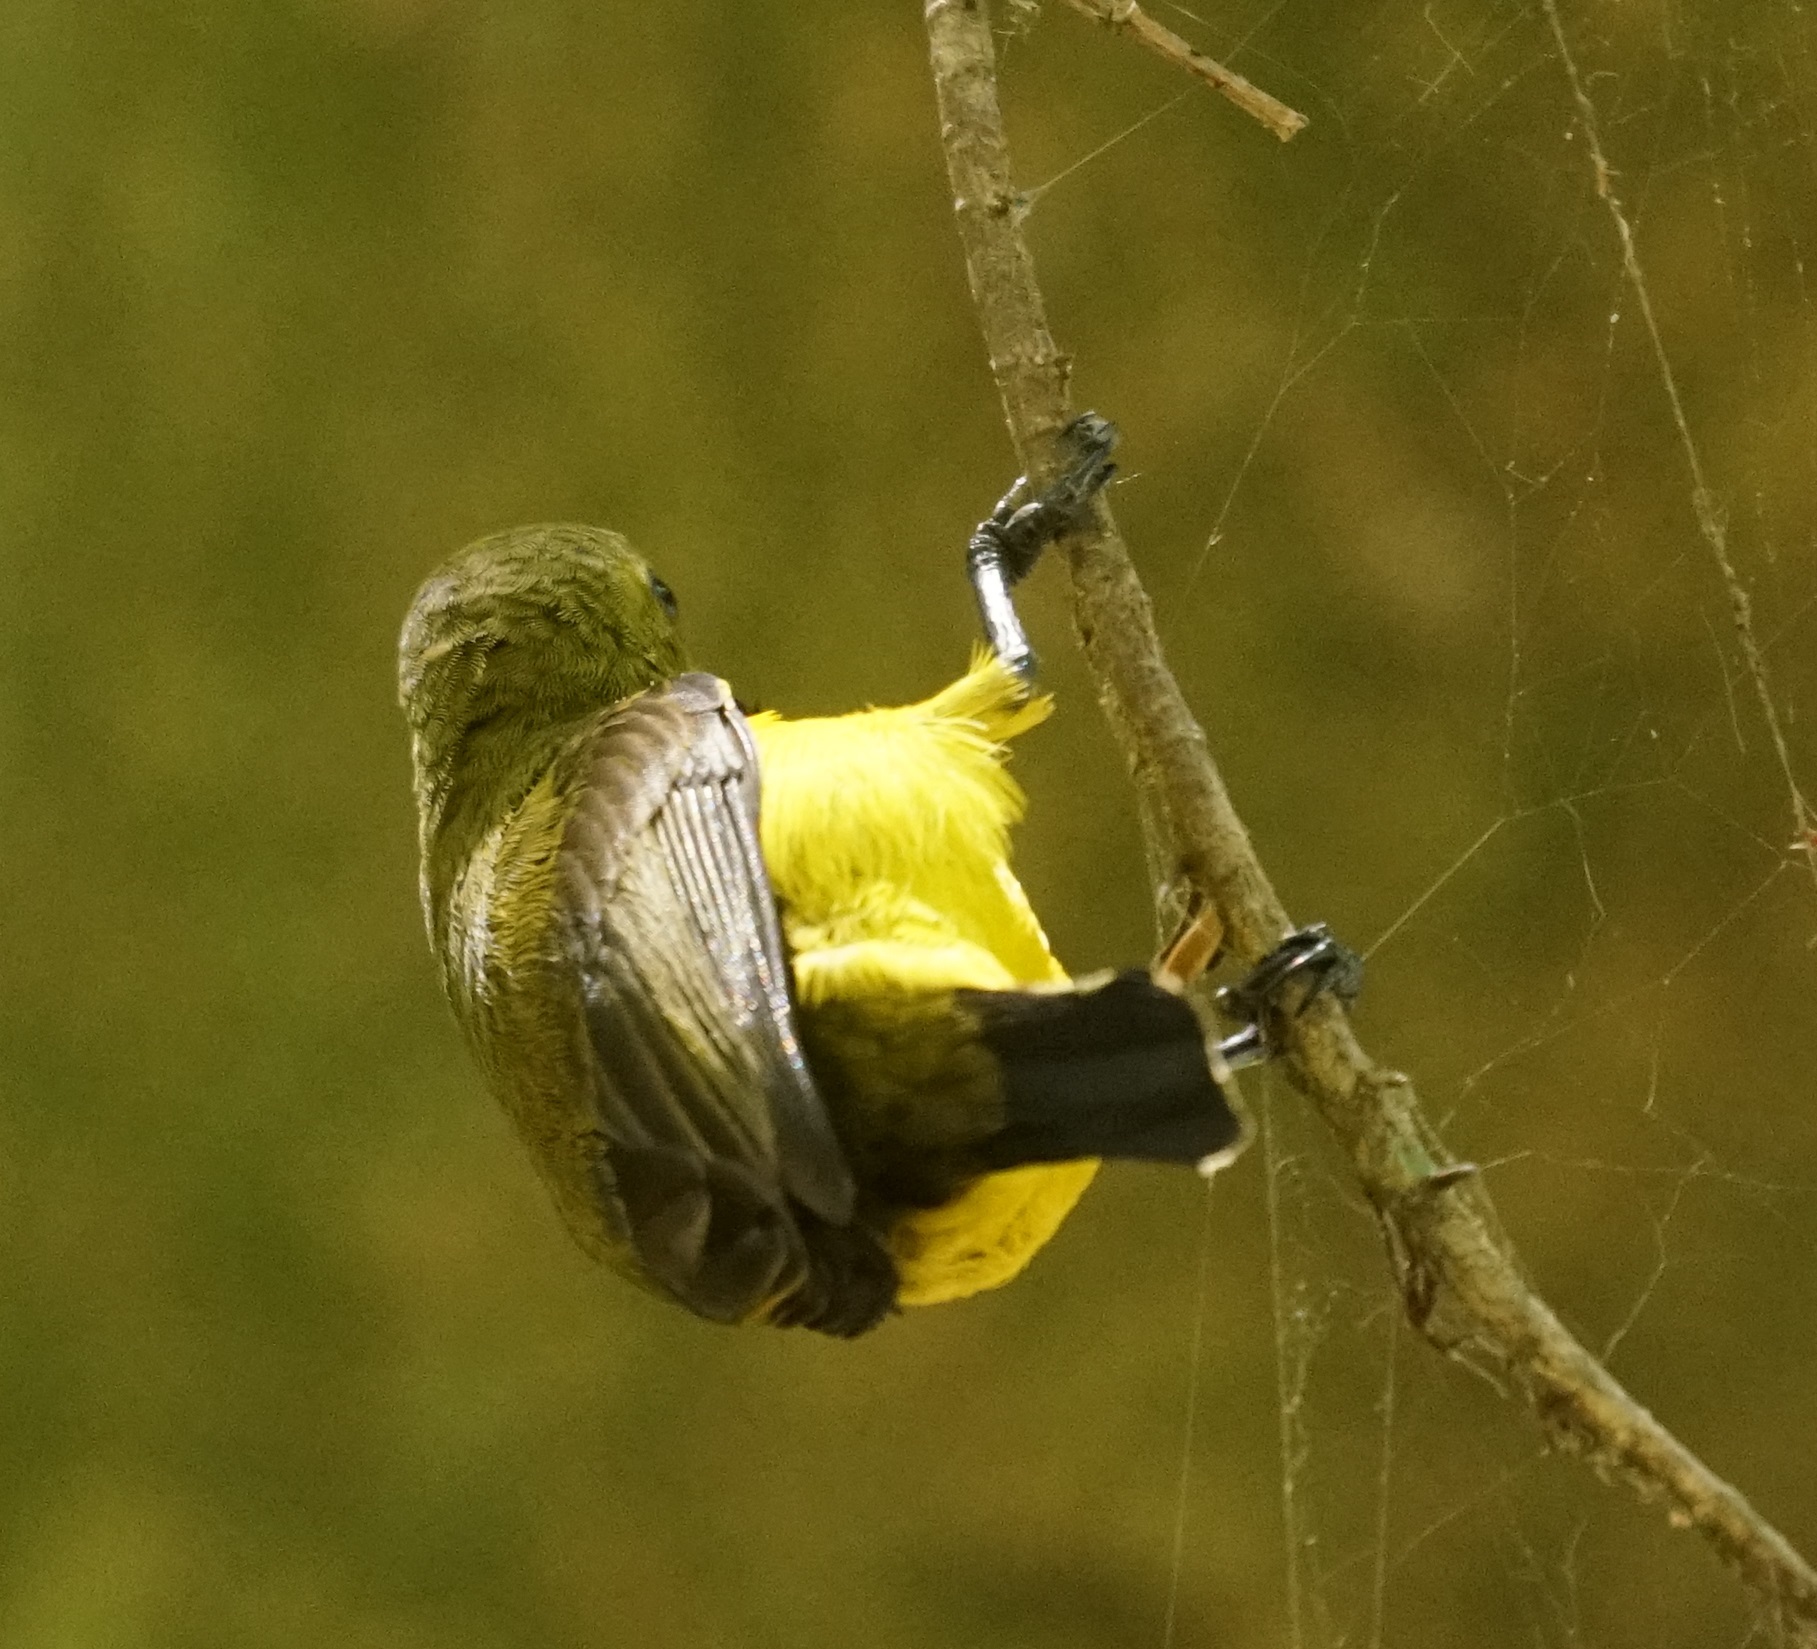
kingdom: Animalia
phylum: Chordata
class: Aves
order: Passeriformes
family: Nectariniidae
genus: Cinnyris
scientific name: Cinnyris
